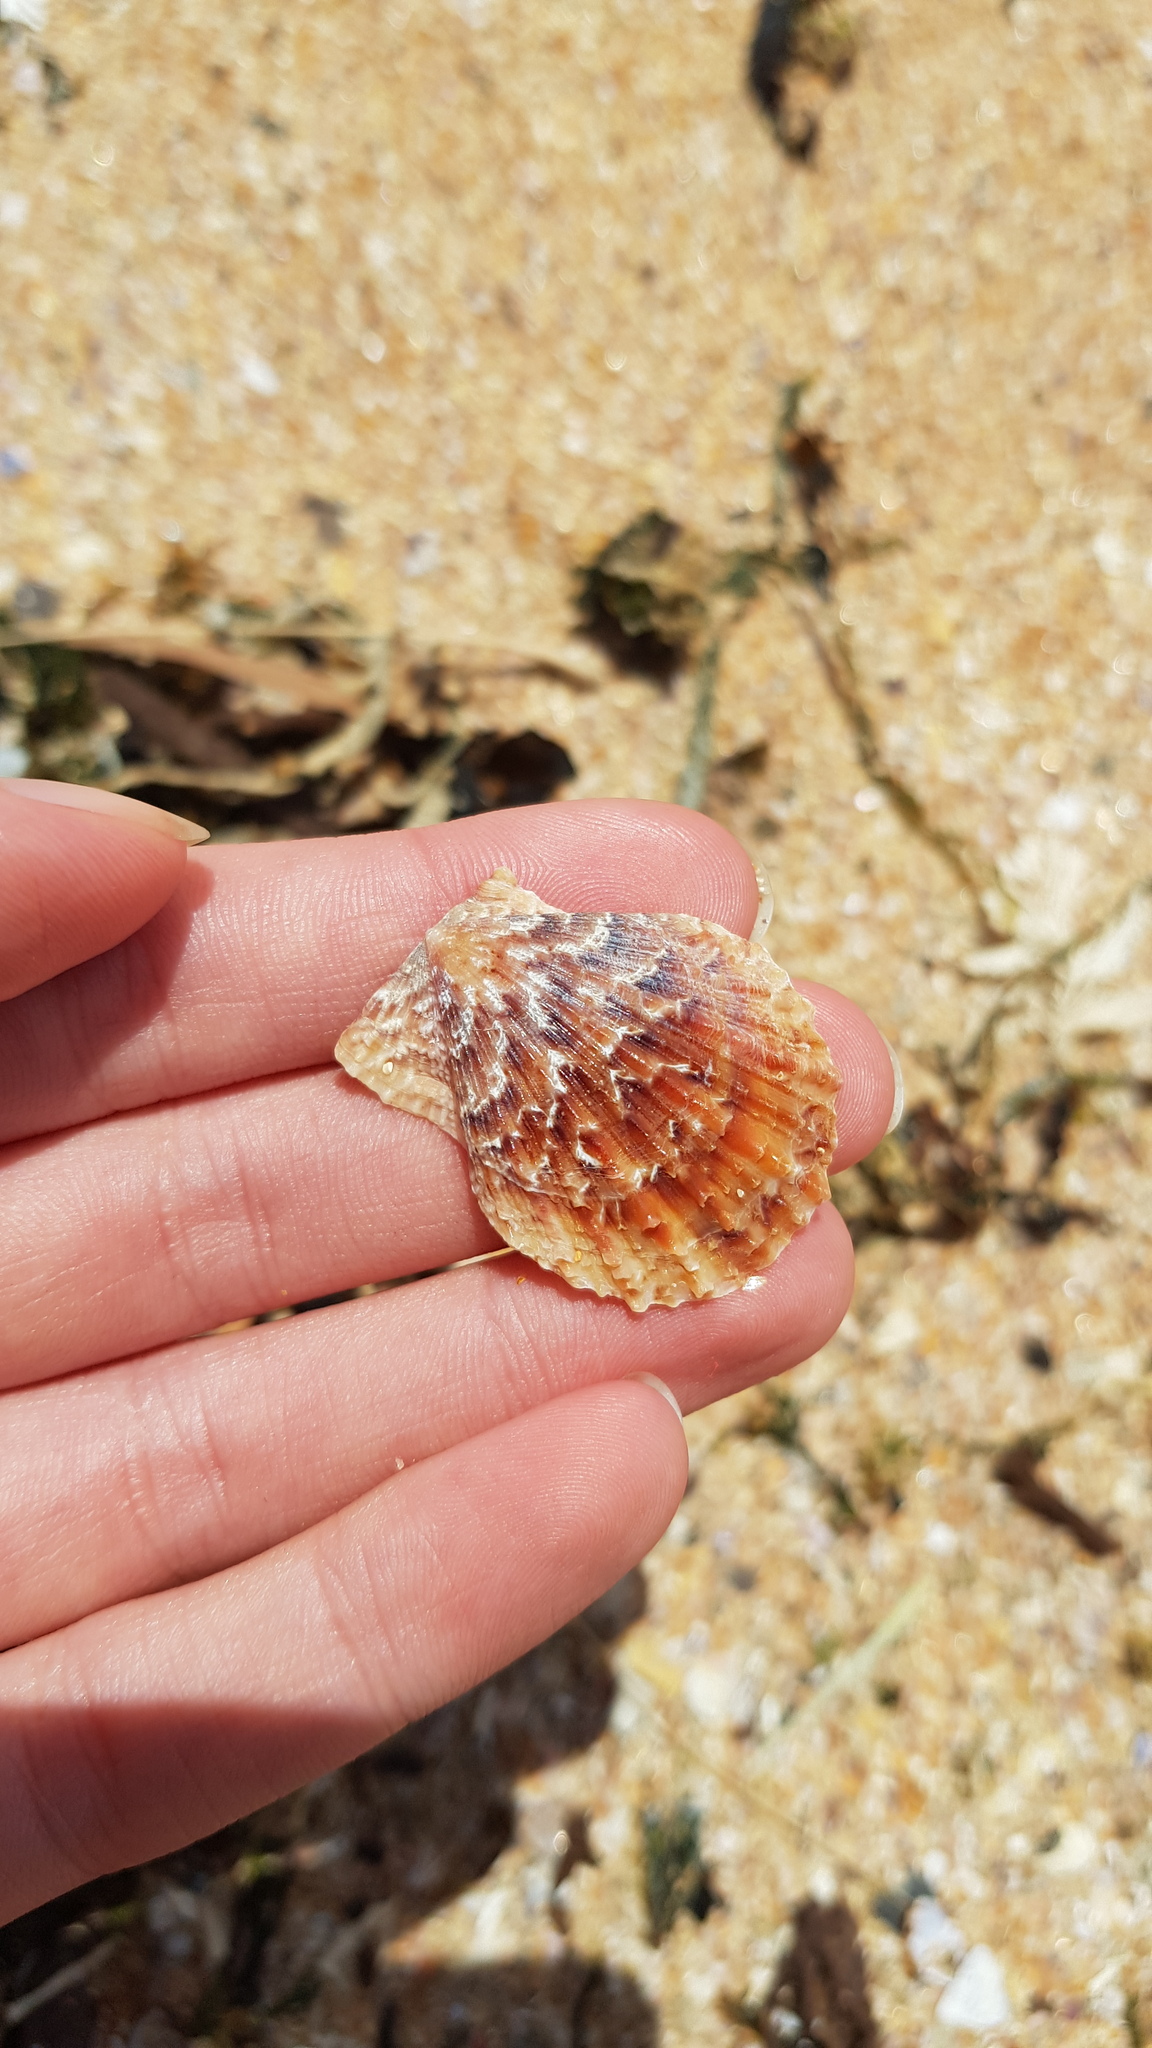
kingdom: Animalia
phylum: Mollusca
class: Bivalvia
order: Pectinida
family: Pectinidae
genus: Scaeochlamys
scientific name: Scaeochlamys livida
